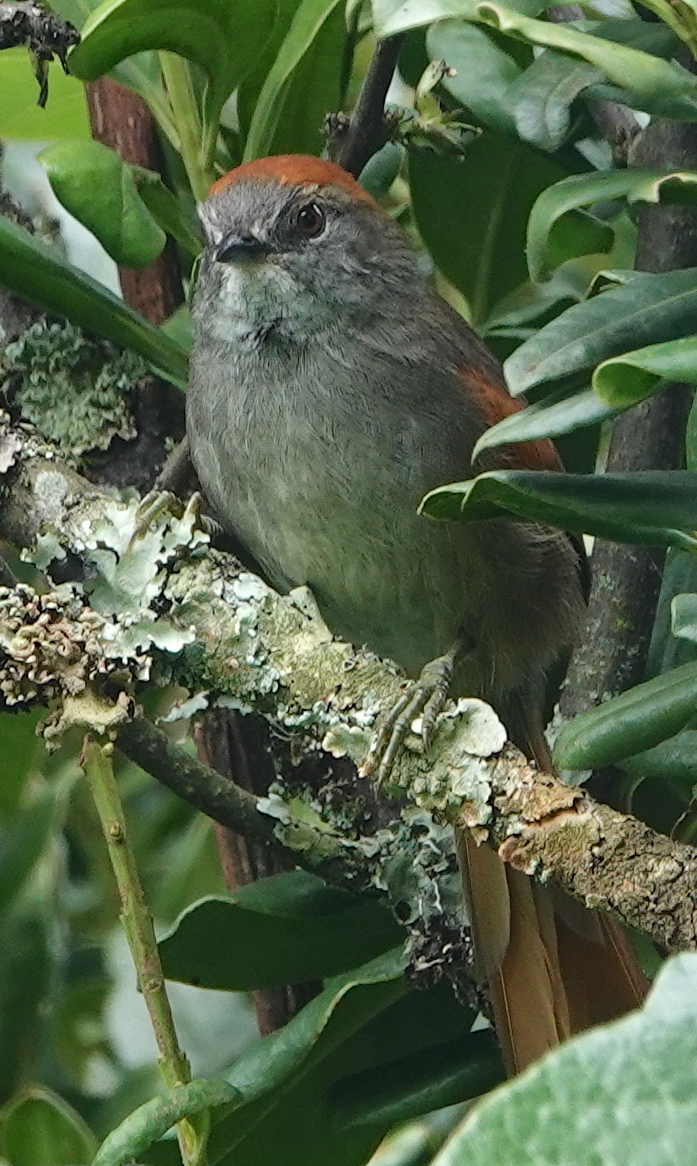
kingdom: Animalia
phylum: Chordata
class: Aves
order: Passeriformes
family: Furnariidae
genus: Synallaxis
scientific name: Synallaxis azarae
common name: Azara's spinetail
